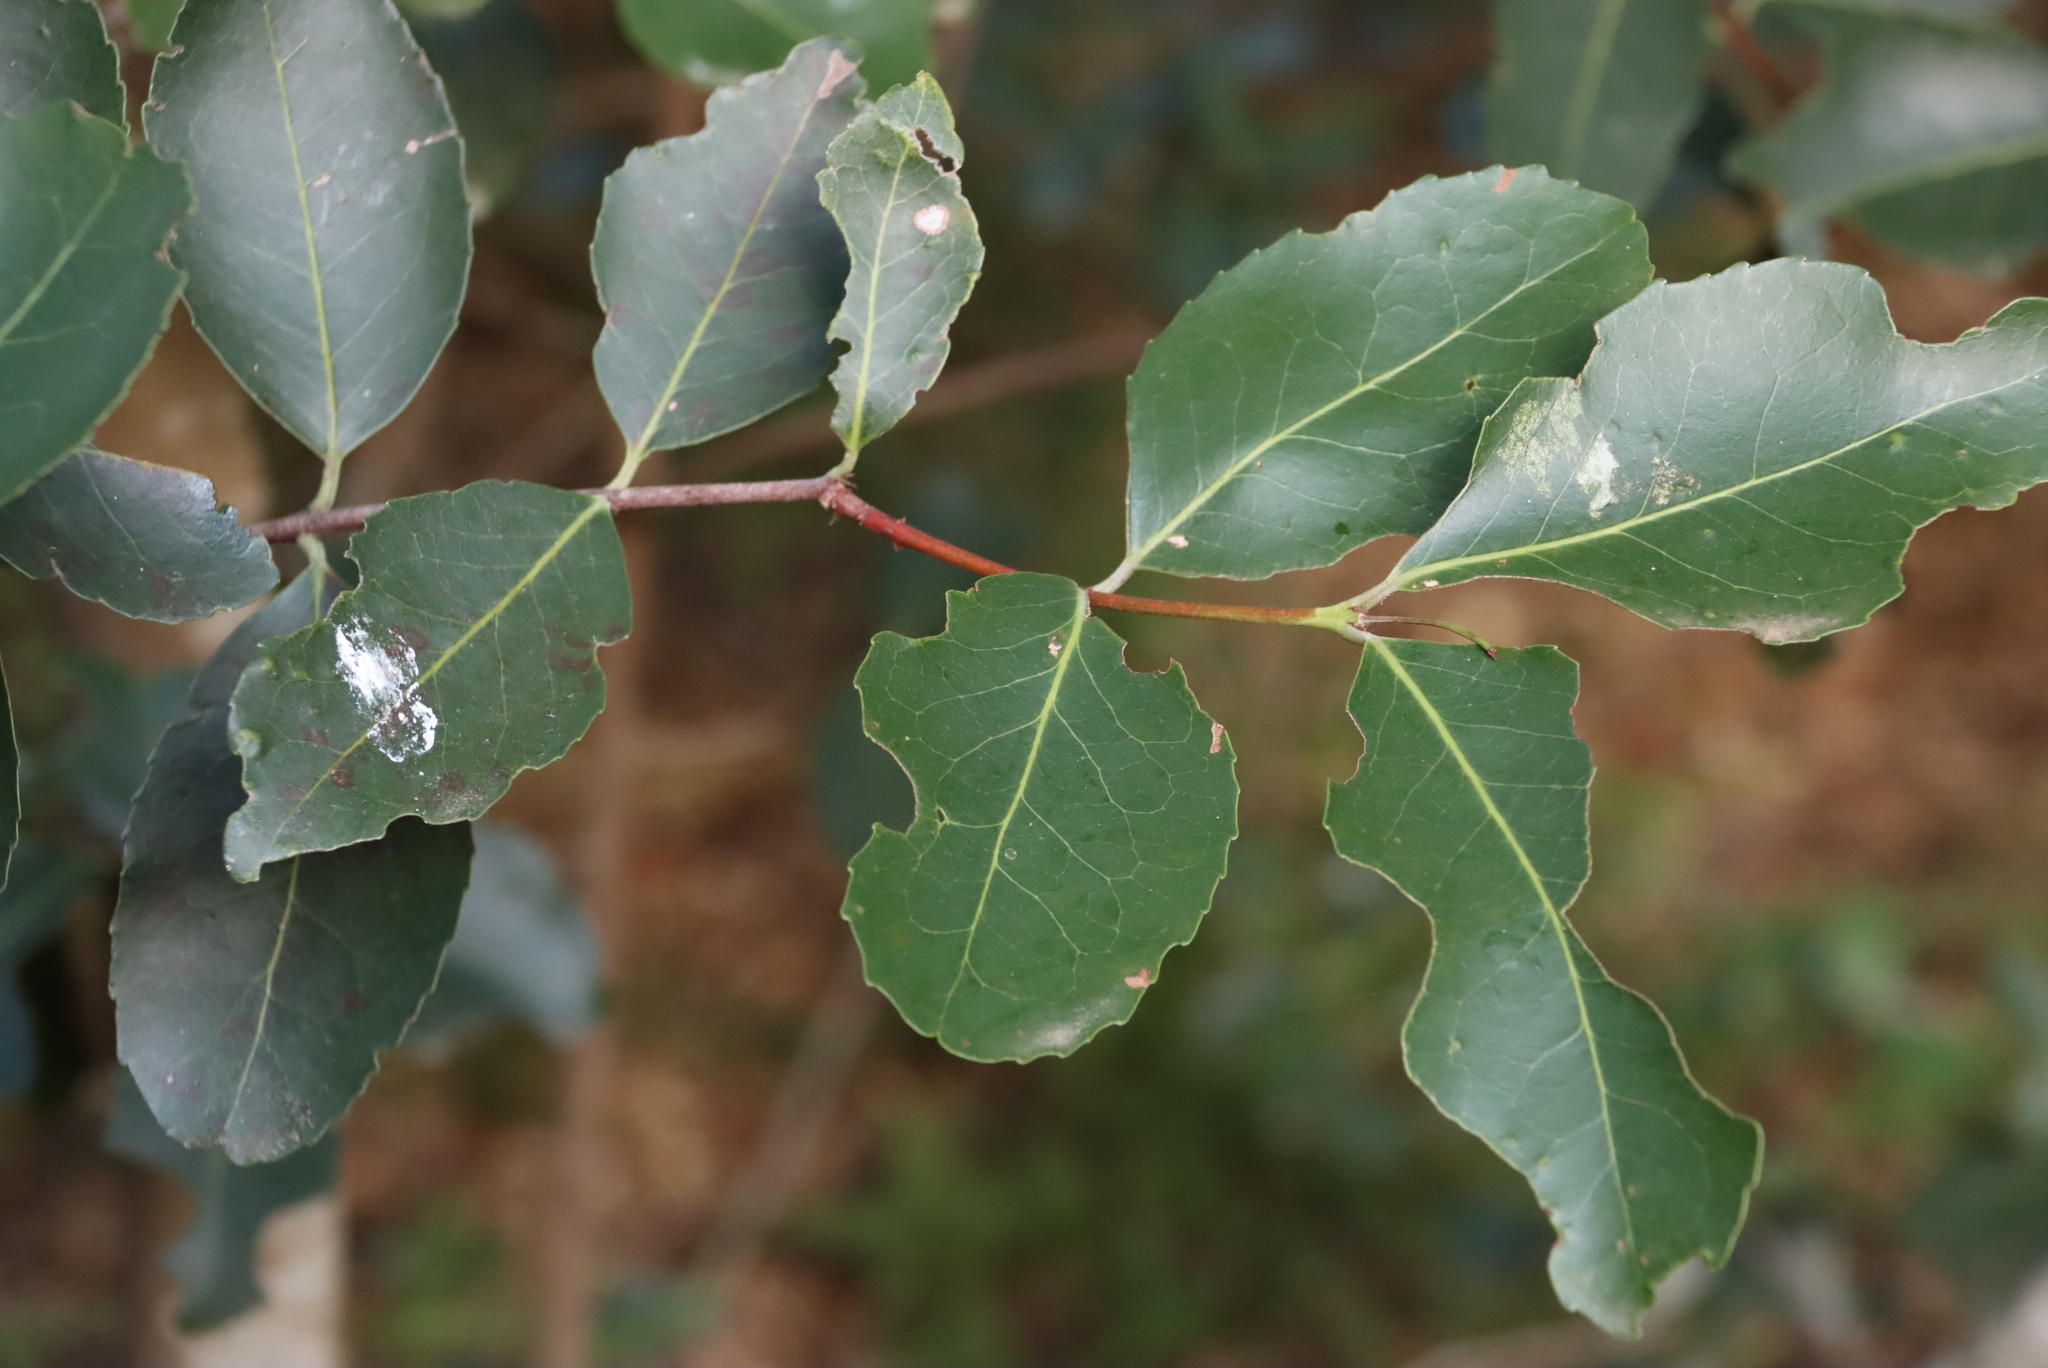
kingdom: Plantae
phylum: Tracheophyta
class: Magnoliopsida
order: Celastrales
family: Celastraceae
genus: Cassine
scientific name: Cassine peragua
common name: Cape saffron
